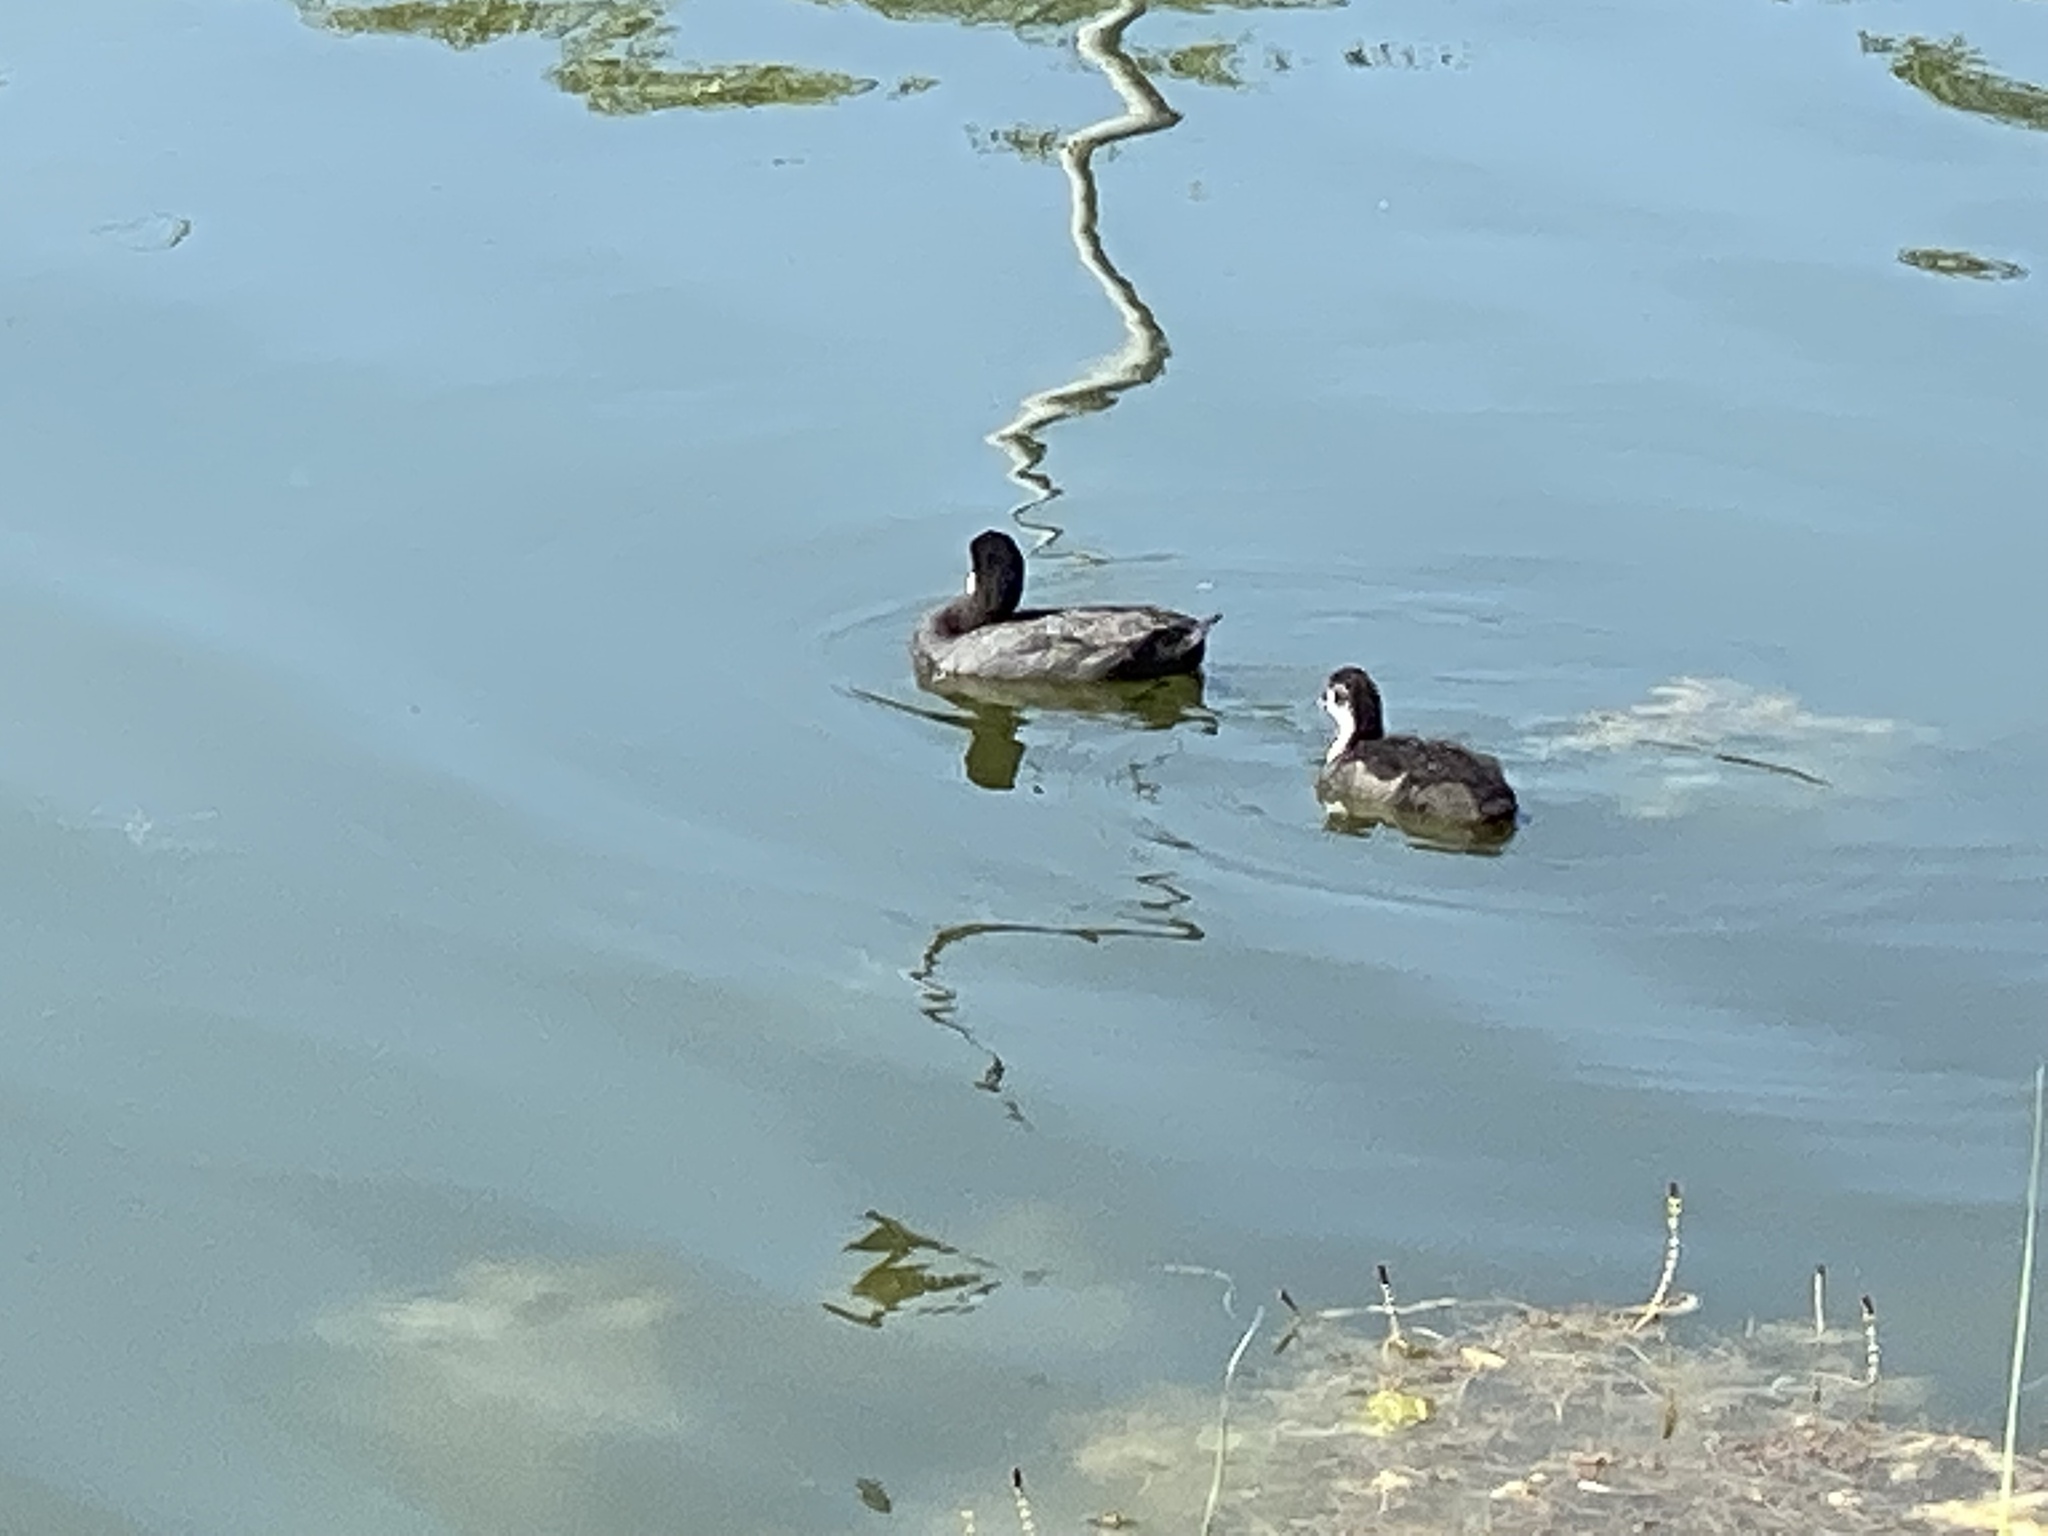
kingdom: Animalia
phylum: Chordata
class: Aves
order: Gruiformes
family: Rallidae
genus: Fulica
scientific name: Fulica atra
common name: Eurasian coot
